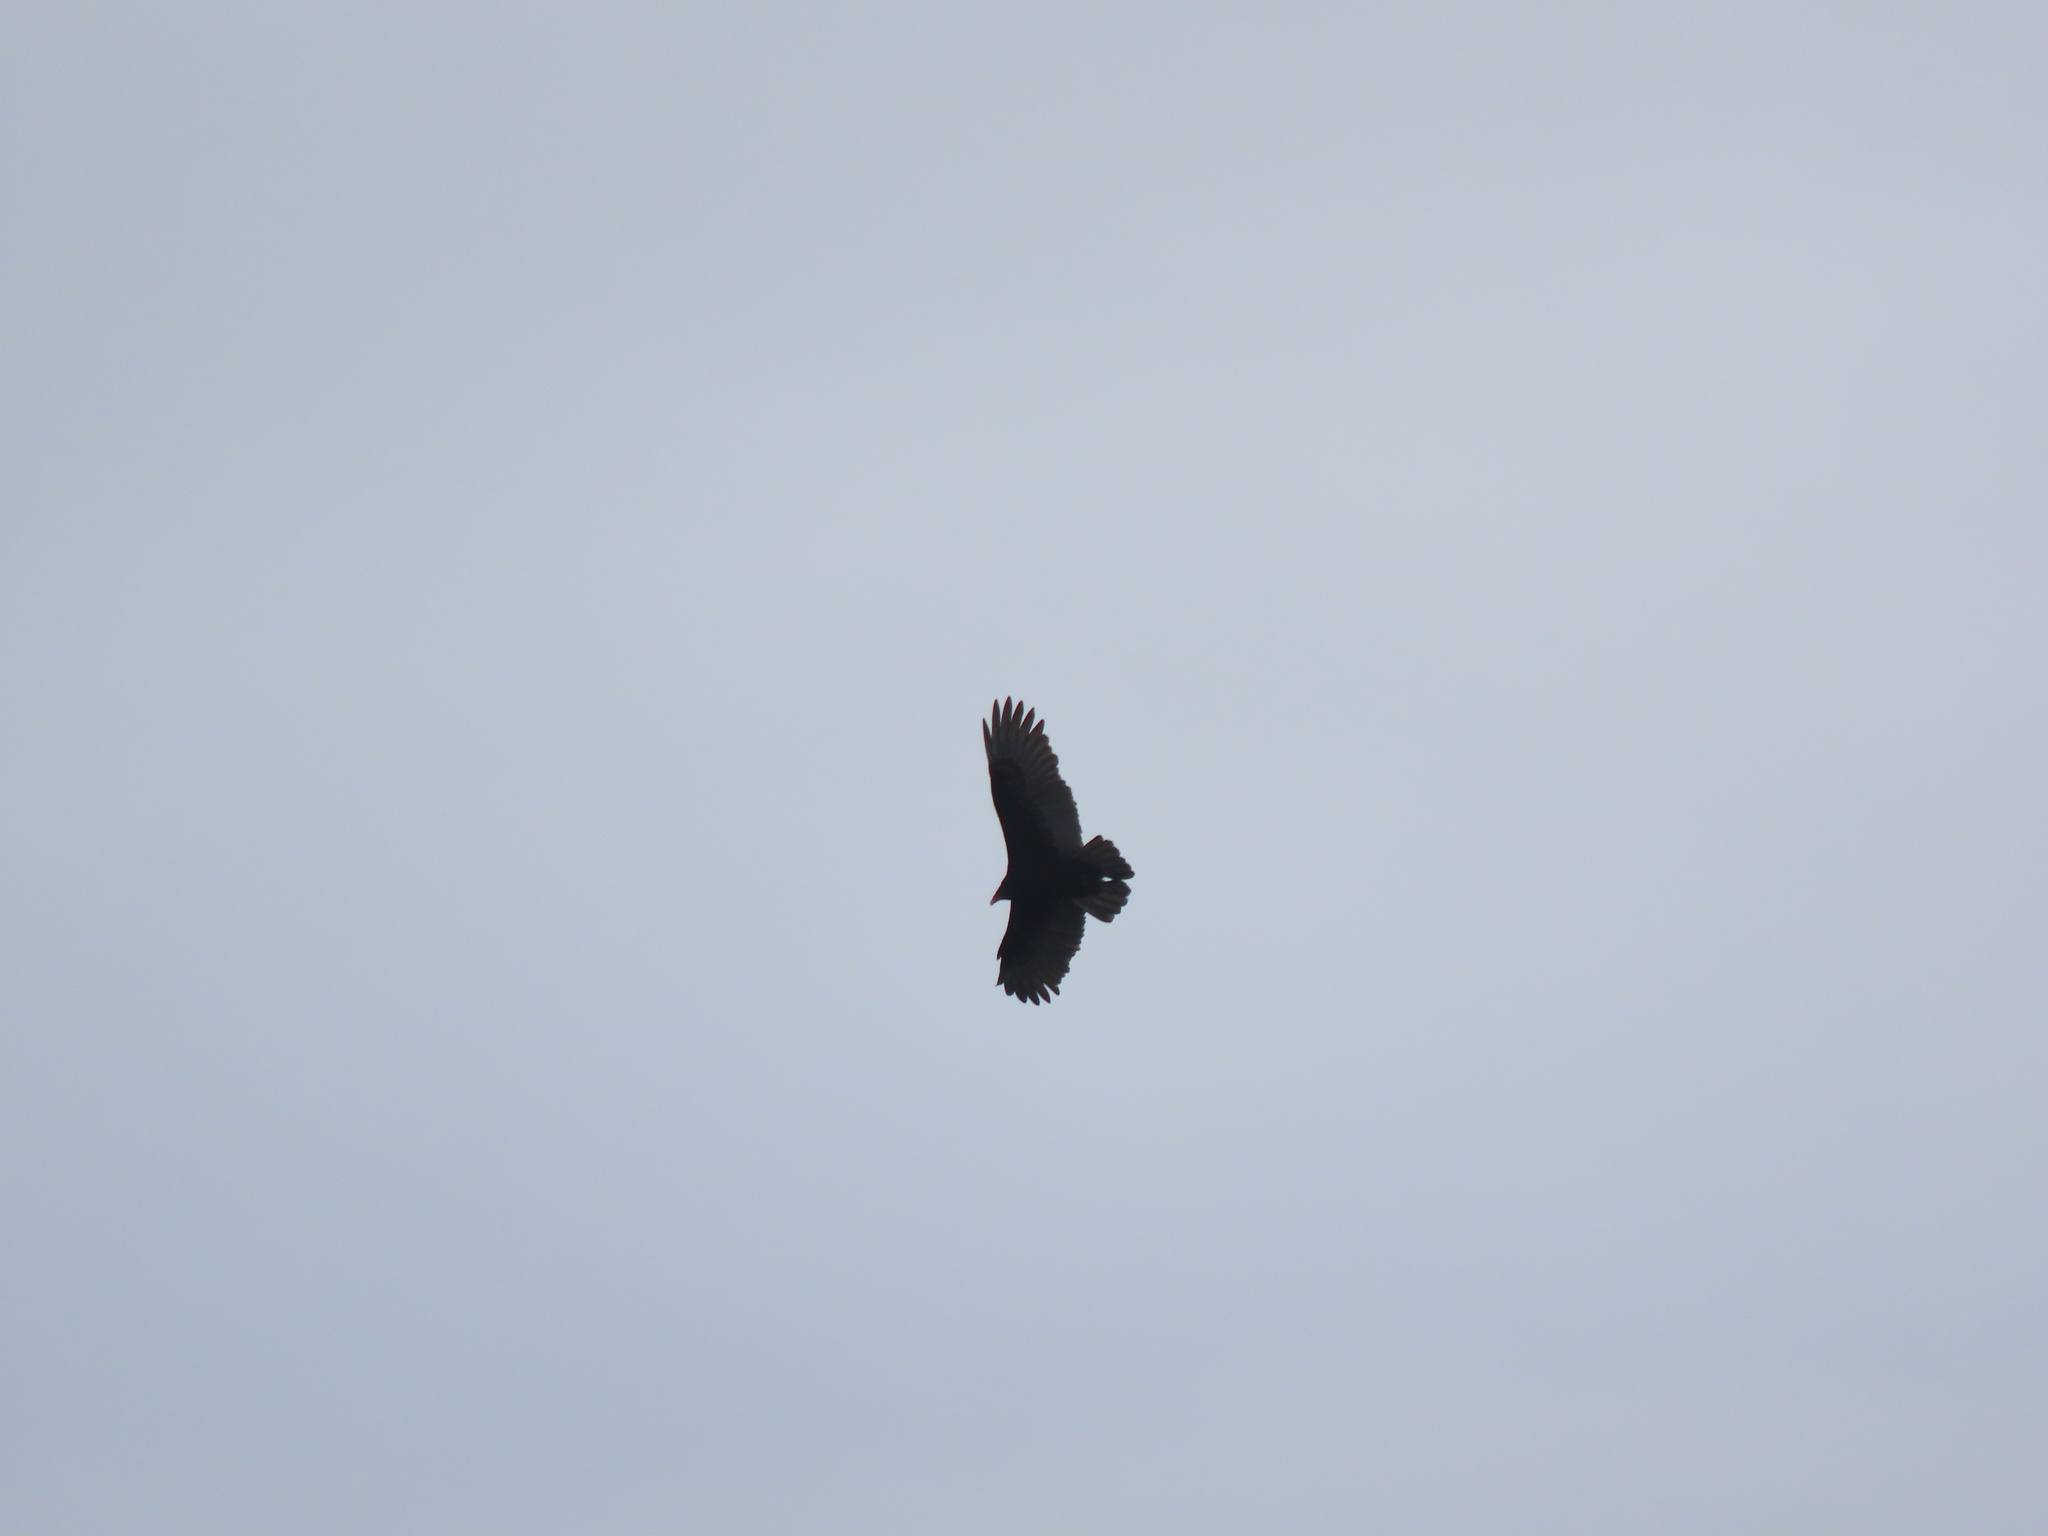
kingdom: Animalia
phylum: Chordata
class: Aves
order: Accipitriformes
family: Cathartidae
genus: Cathartes
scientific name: Cathartes aura
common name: Turkey vulture
